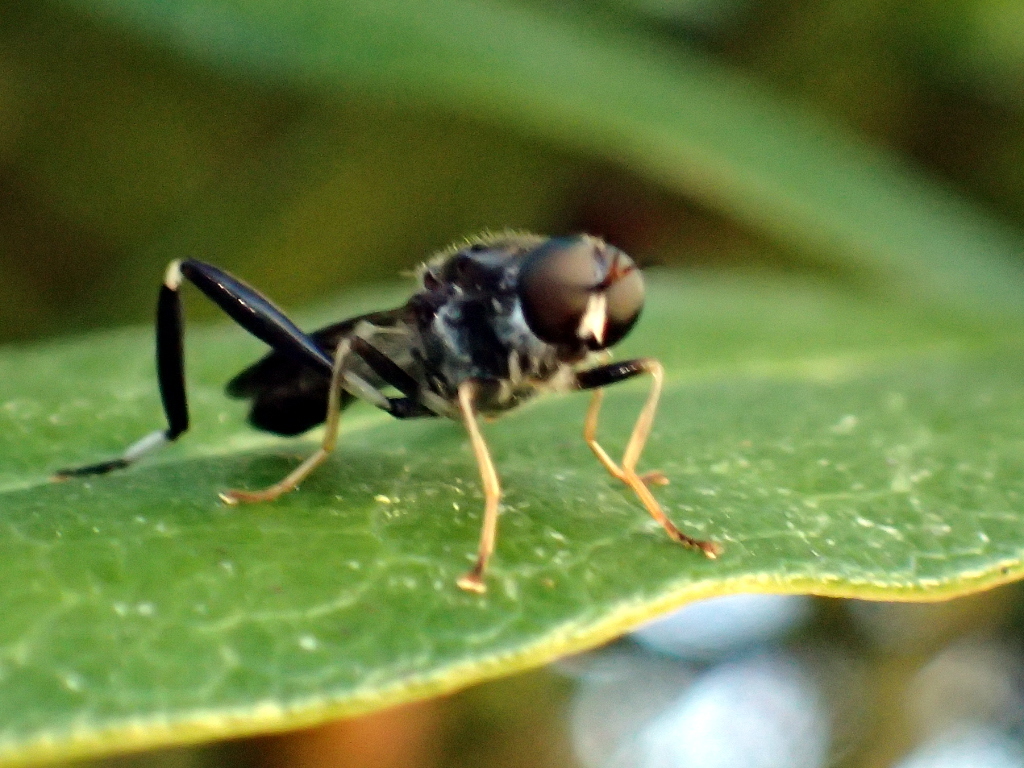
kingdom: Animalia
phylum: Arthropoda
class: Insecta
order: Diptera
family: Stratiomyidae
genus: Exaireta
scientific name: Exaireta spinigera
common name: Blue soldier fly
